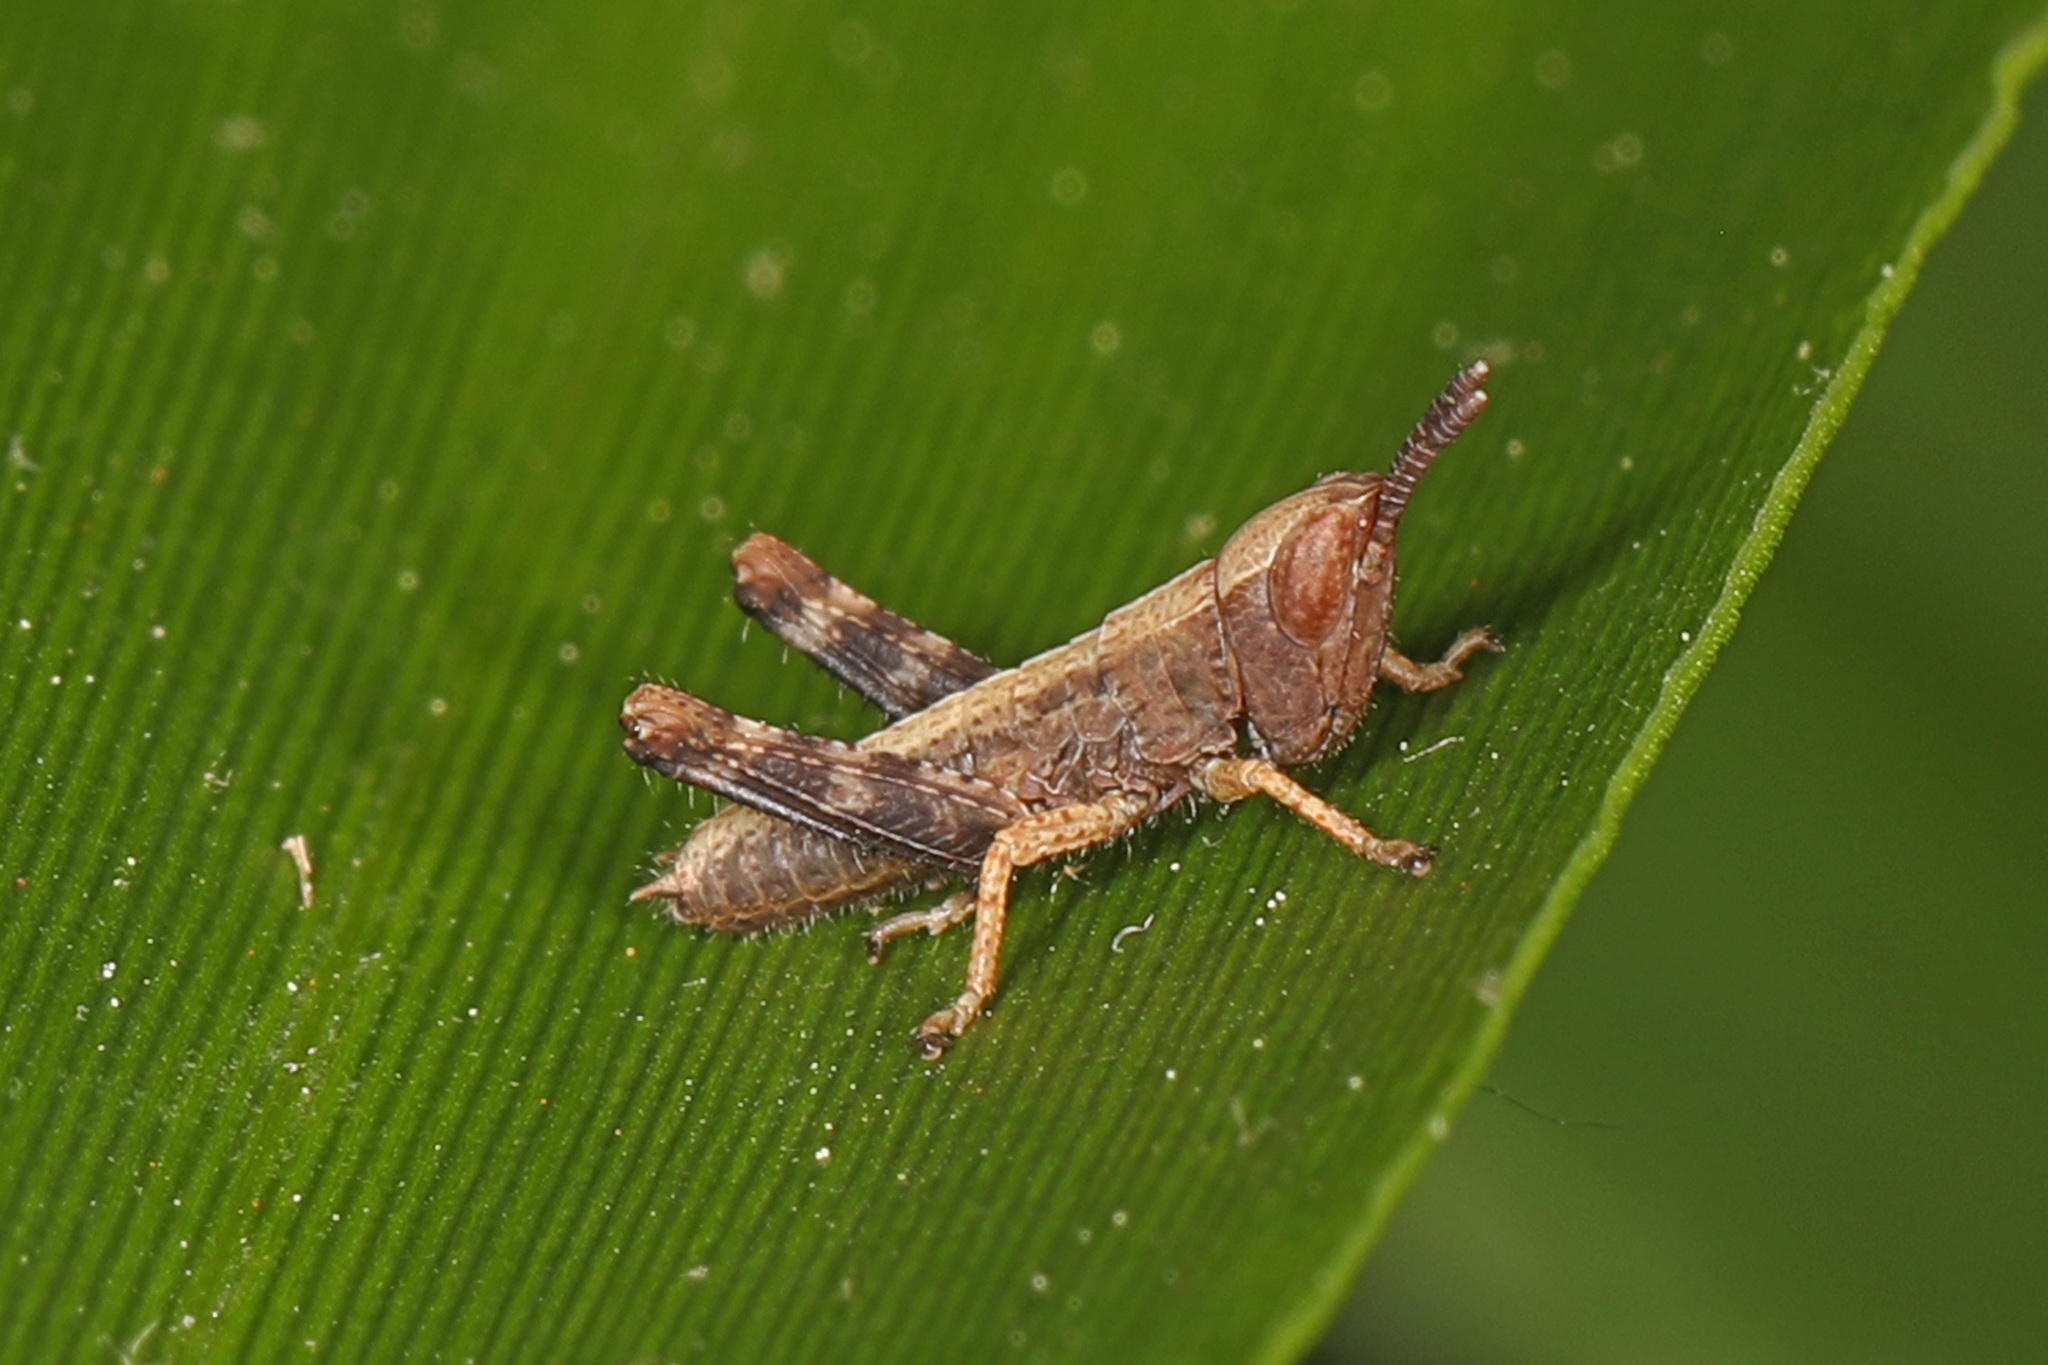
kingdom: Animalia
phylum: Arthropoda
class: Insecta
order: Orthoptera
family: Acrididae
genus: Dichromorpha
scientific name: Dichromorpha viridis
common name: Short-winged green grasshopper
